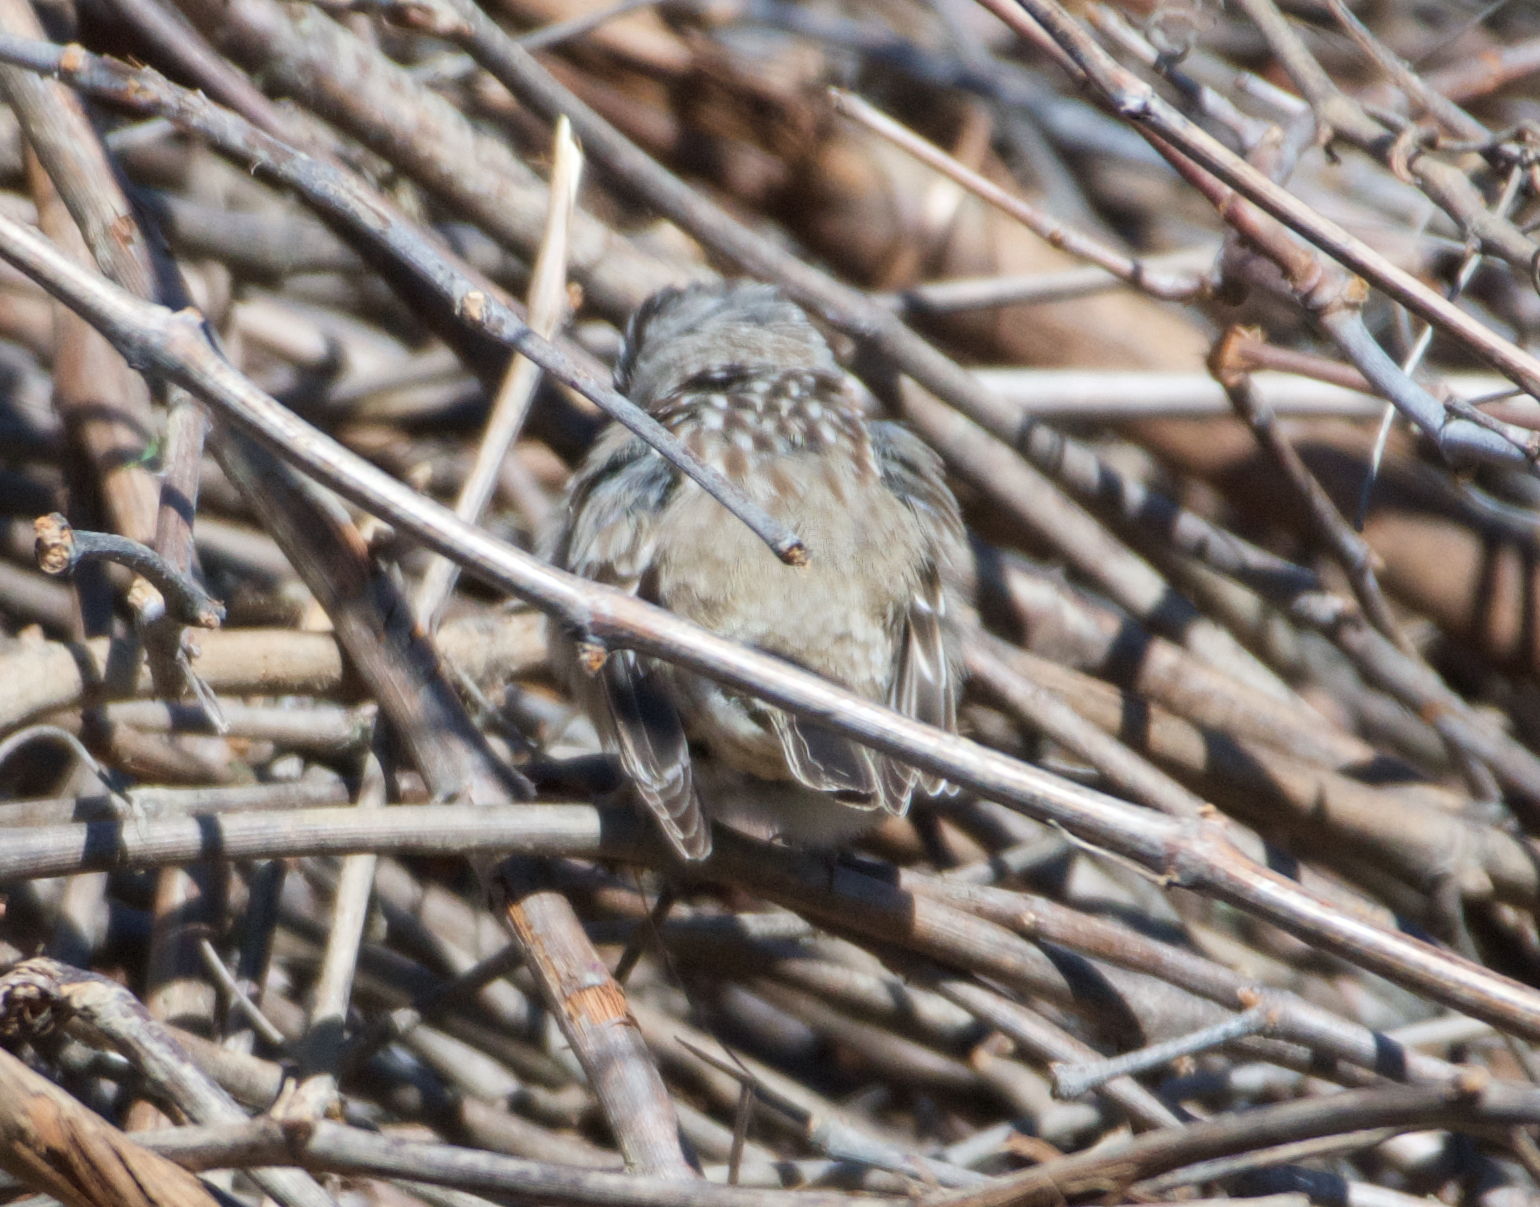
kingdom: Animalia
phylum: Chordata
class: Aves
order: Passeriformes
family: Passerellidae
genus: Zonotrichia
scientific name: Zonotrichia leucophrys
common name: White-crowned sparrow
